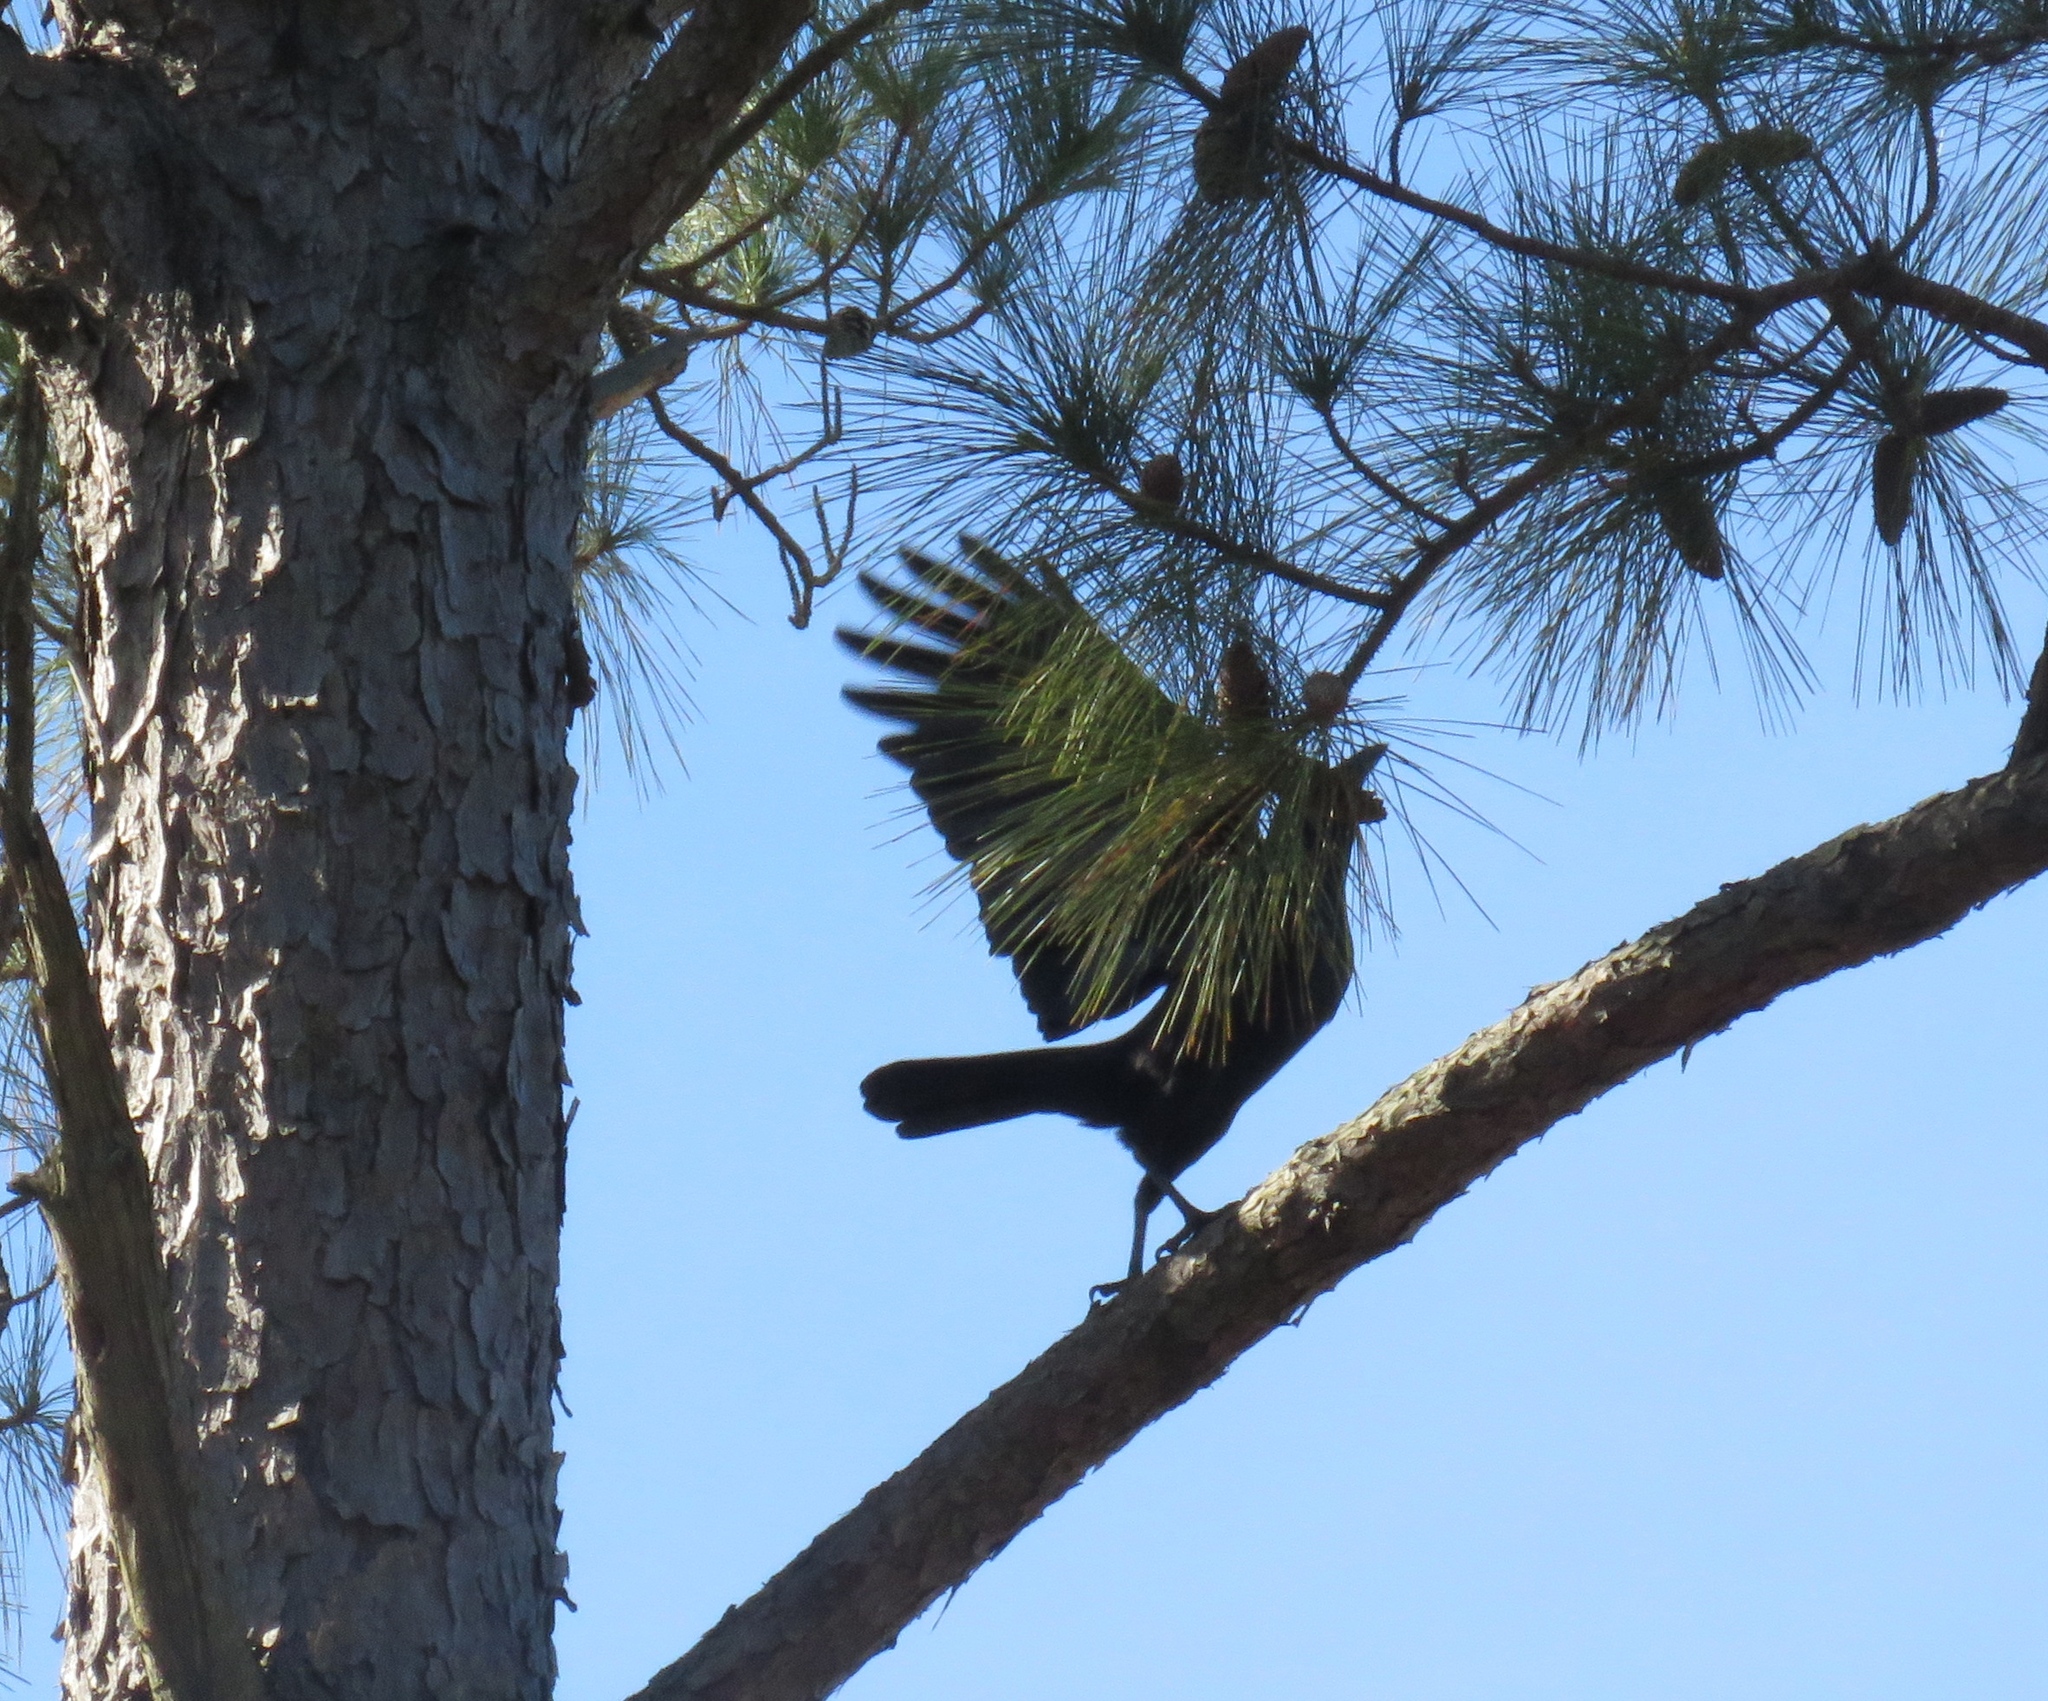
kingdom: Animalia
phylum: Chordata
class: Aves
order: Passeriformes
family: Corvidae
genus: Corvus
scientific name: Corvus brachyrhynchos
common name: American crow
